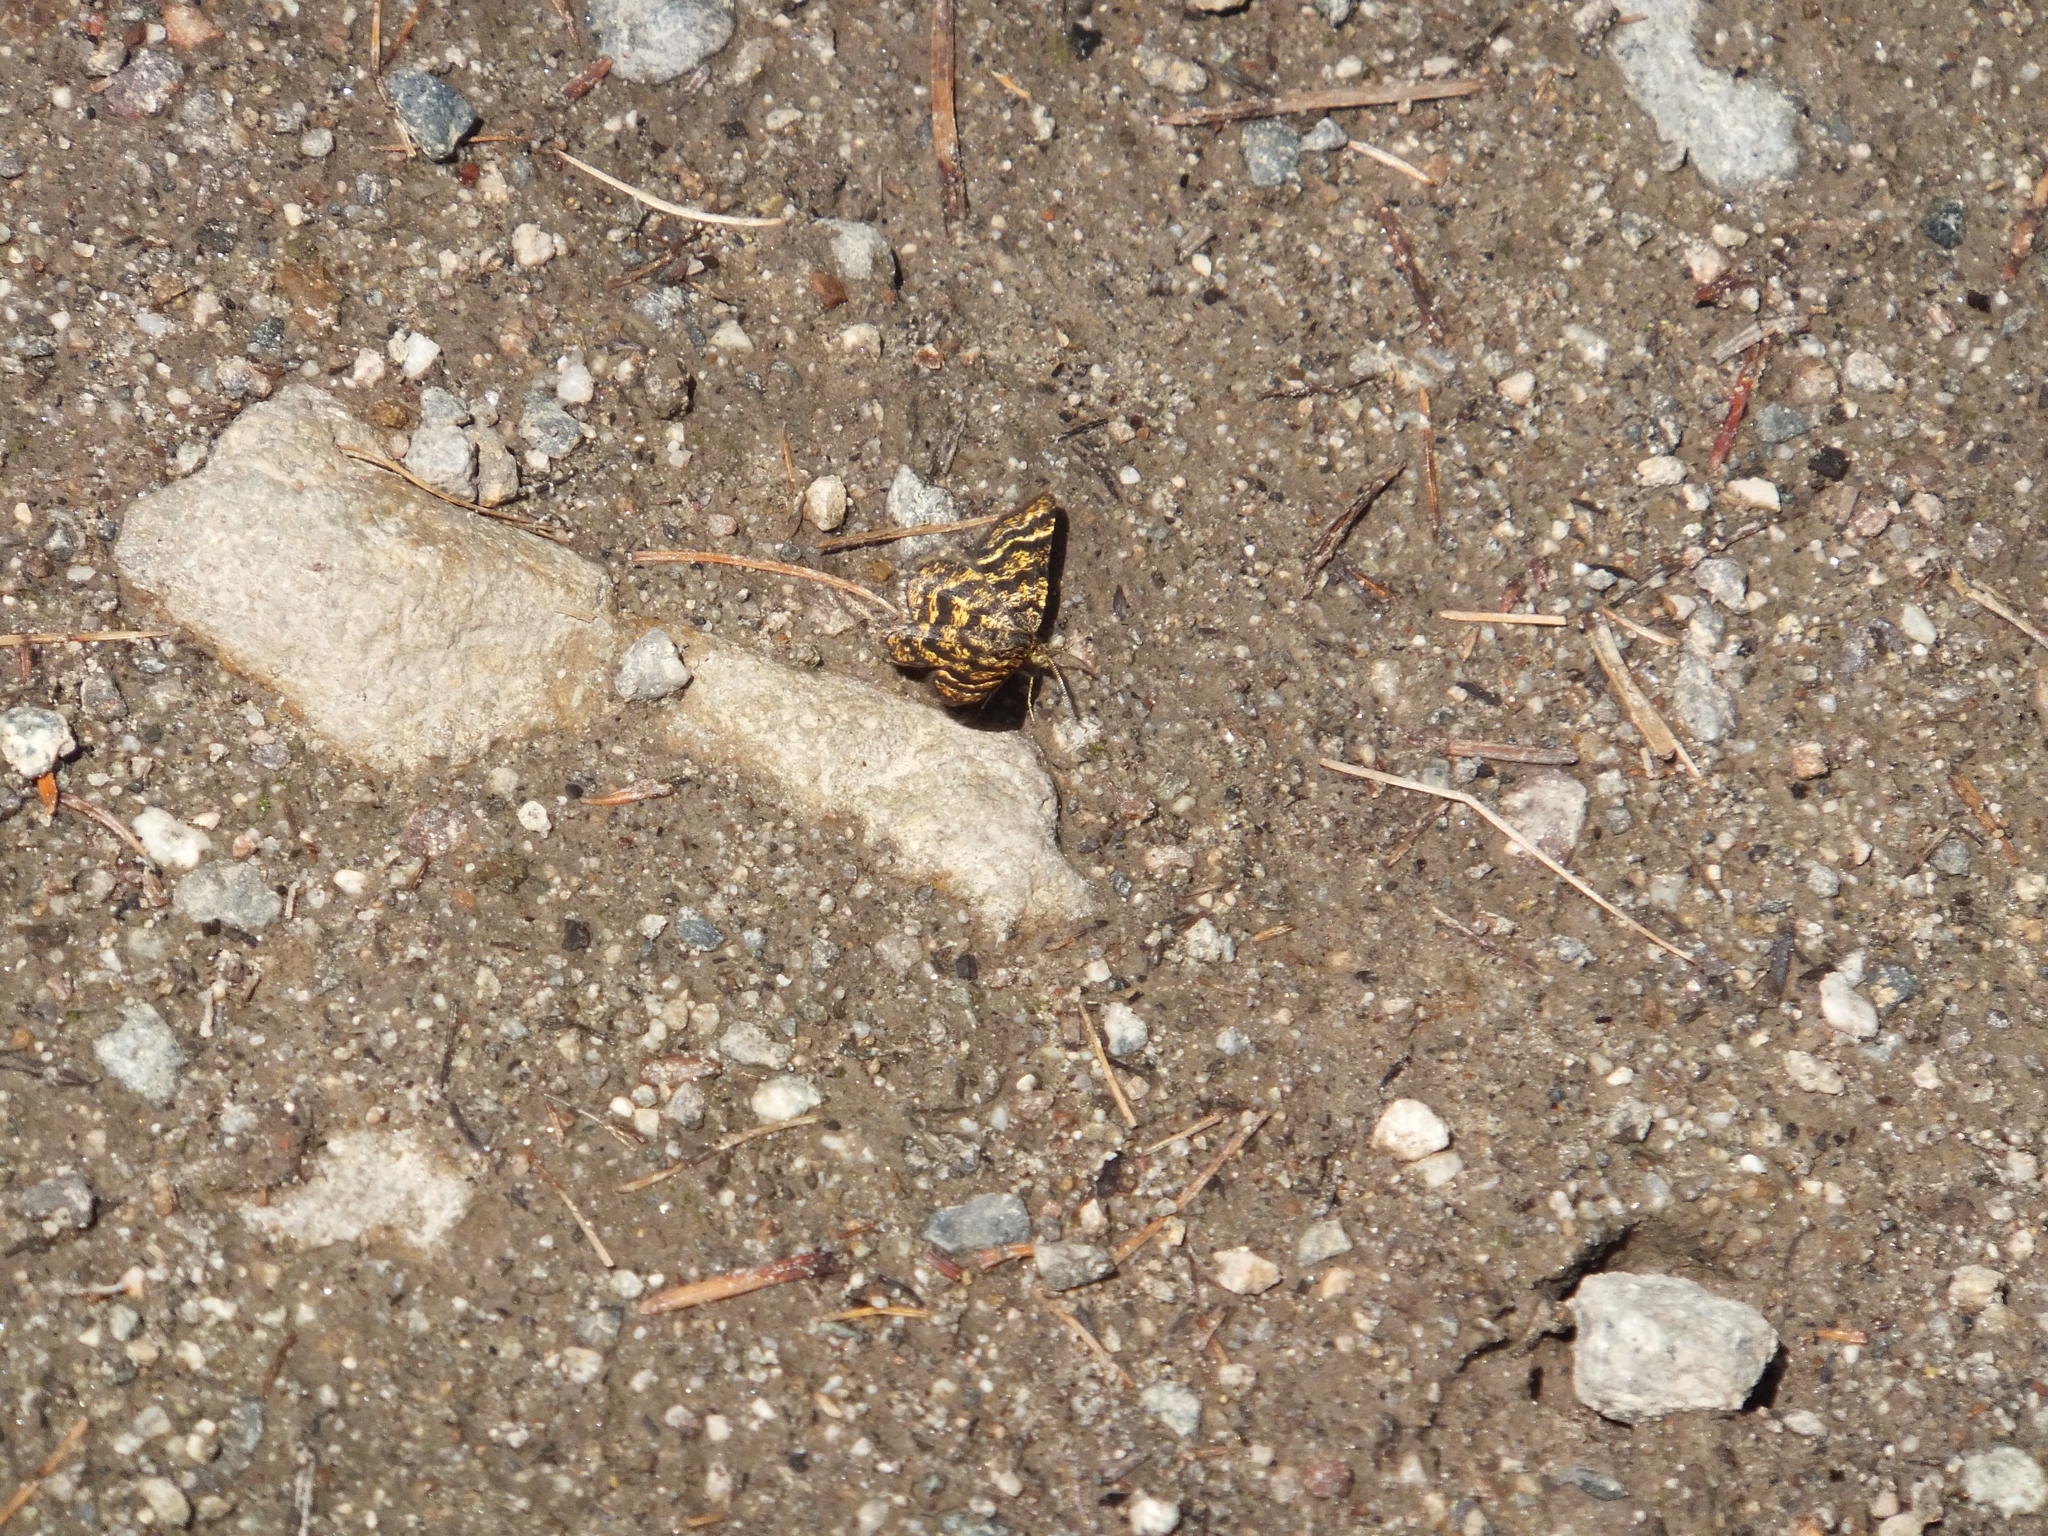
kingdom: Animalia
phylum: Arthropoda
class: Insecta
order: Lepidoptera
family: Geometridae
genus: Macaria
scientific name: Macaria truncataria
